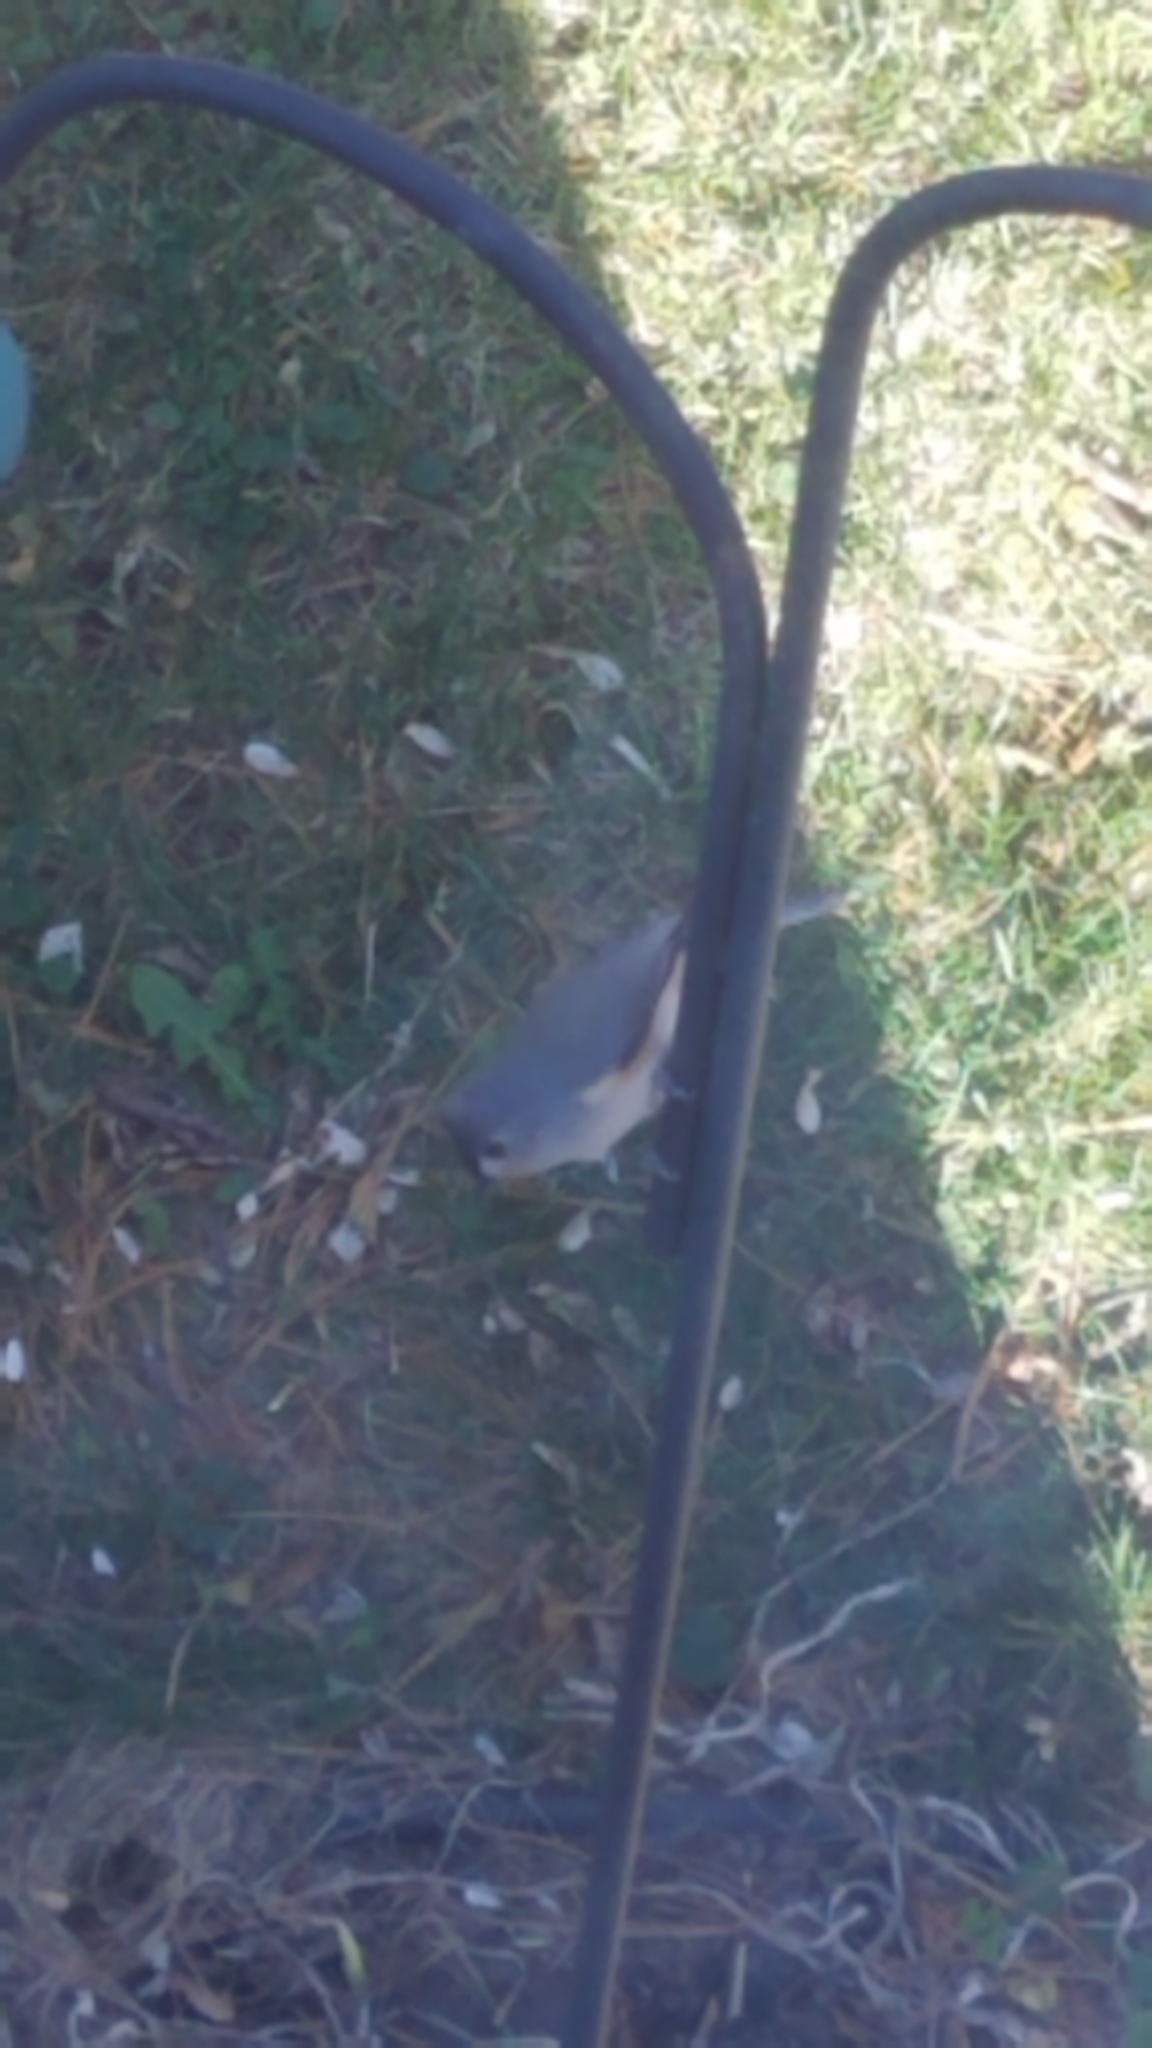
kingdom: Animalia
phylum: Chordata
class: Aves
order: Passeriformes
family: Paridae
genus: Baeolophus
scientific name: Baeolophus bicolor
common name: Tufted titmouse
